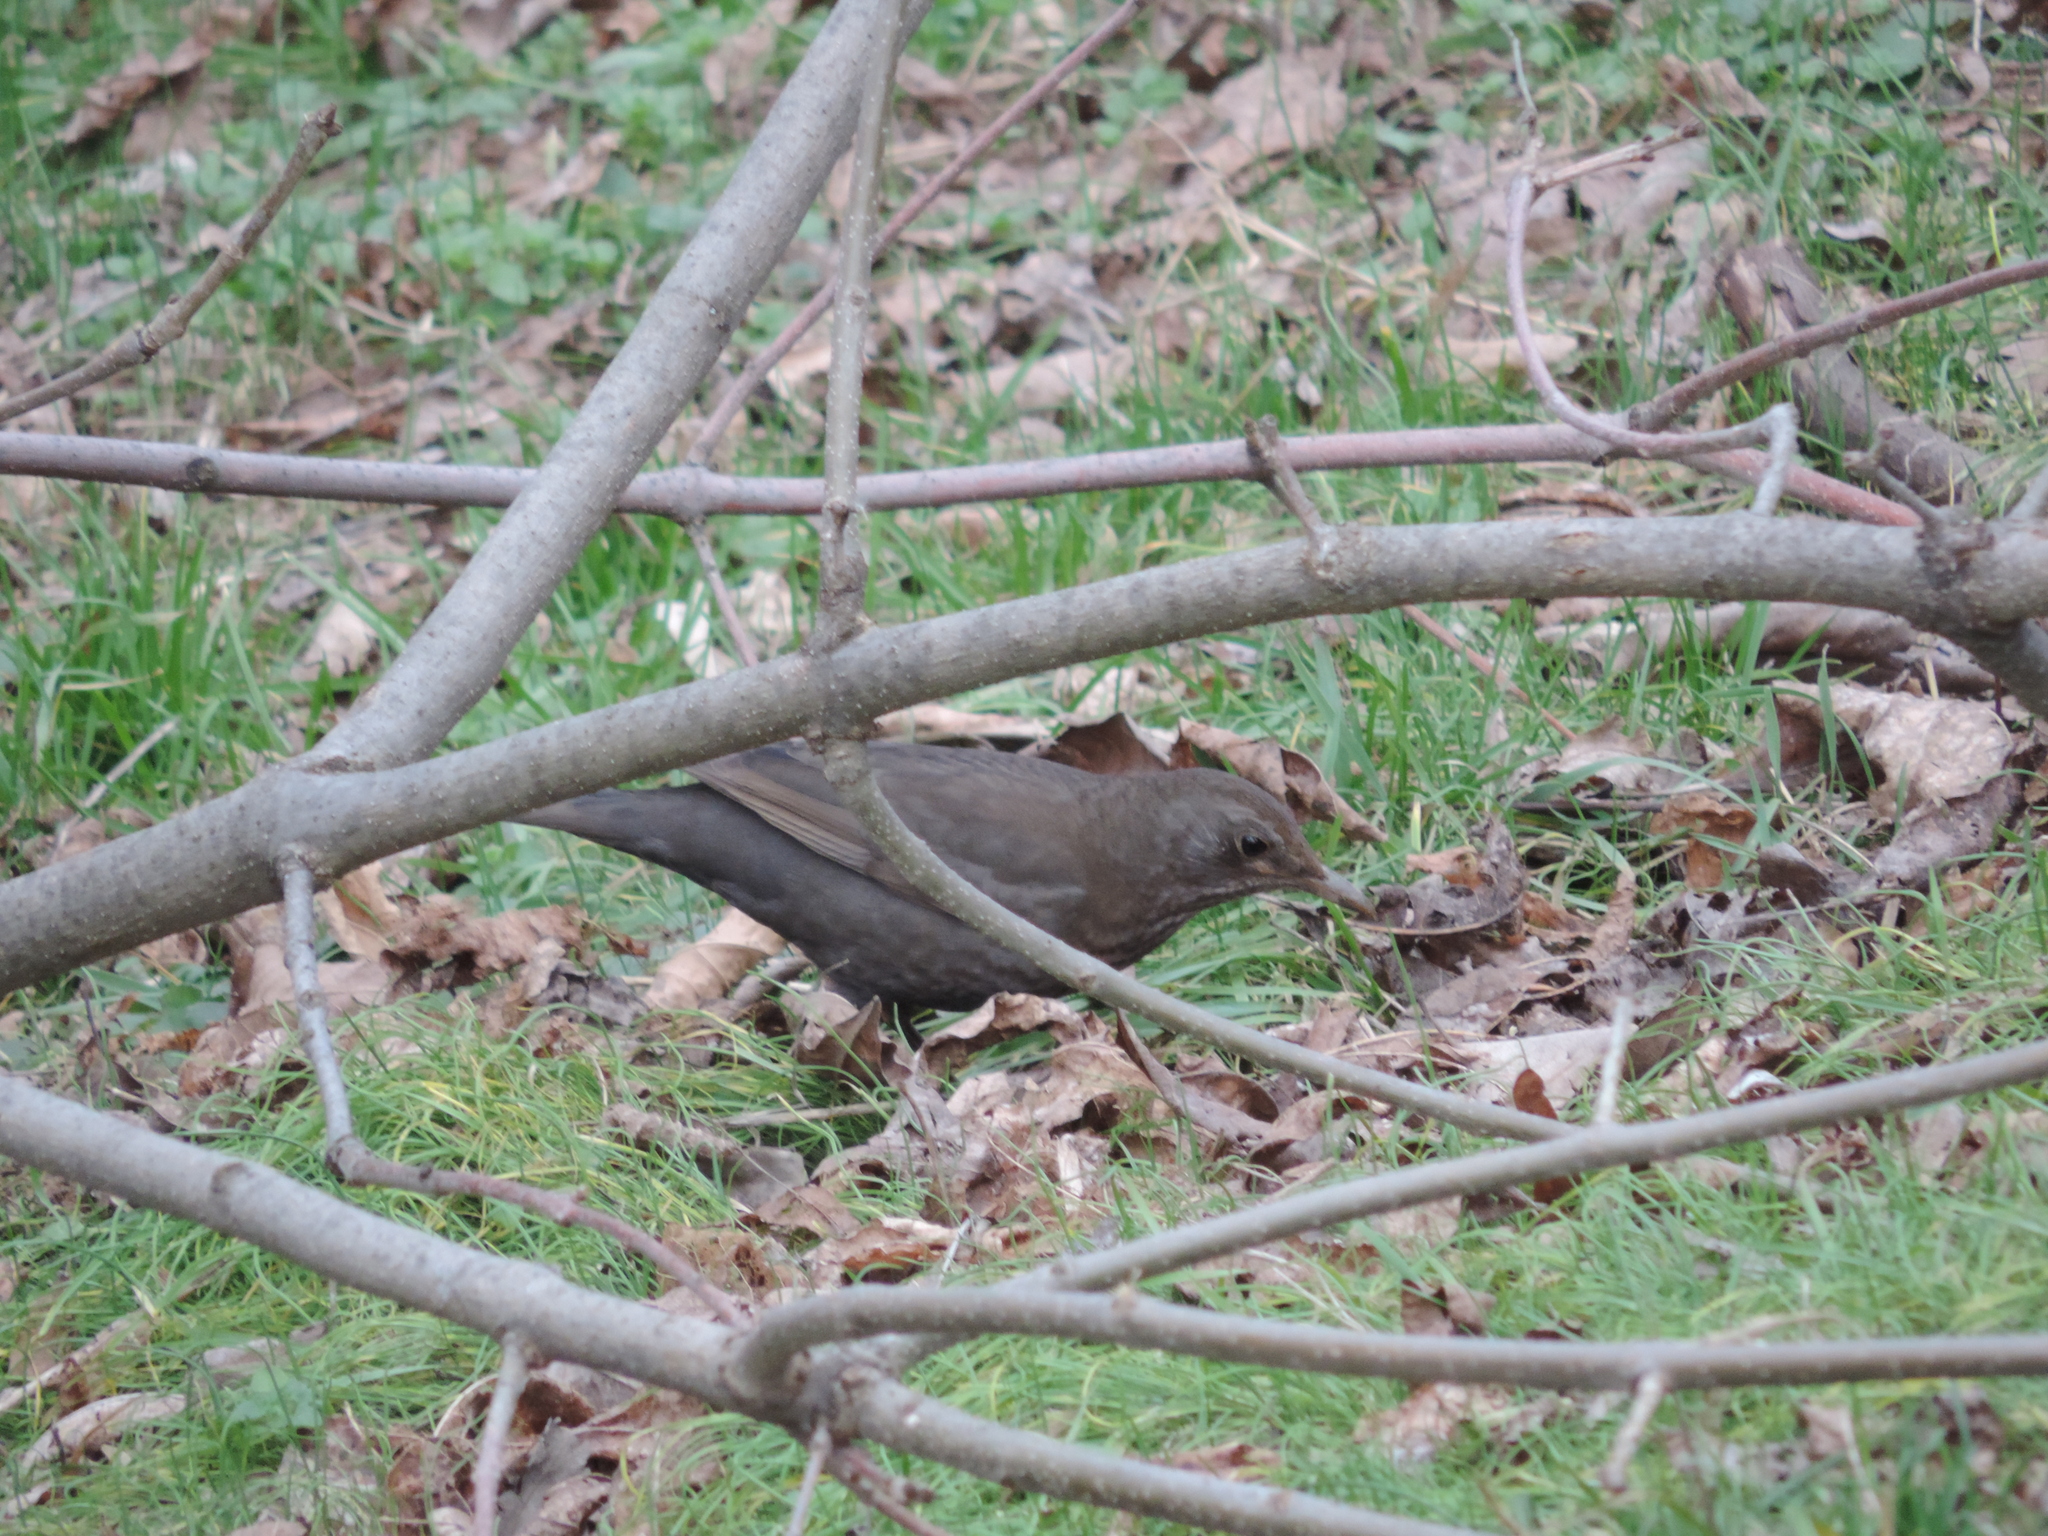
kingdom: Animalia
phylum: Chordata
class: Aves
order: Passeriformes
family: Turdidae
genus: Turdus
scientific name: Turdus merula
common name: Common blackbird
